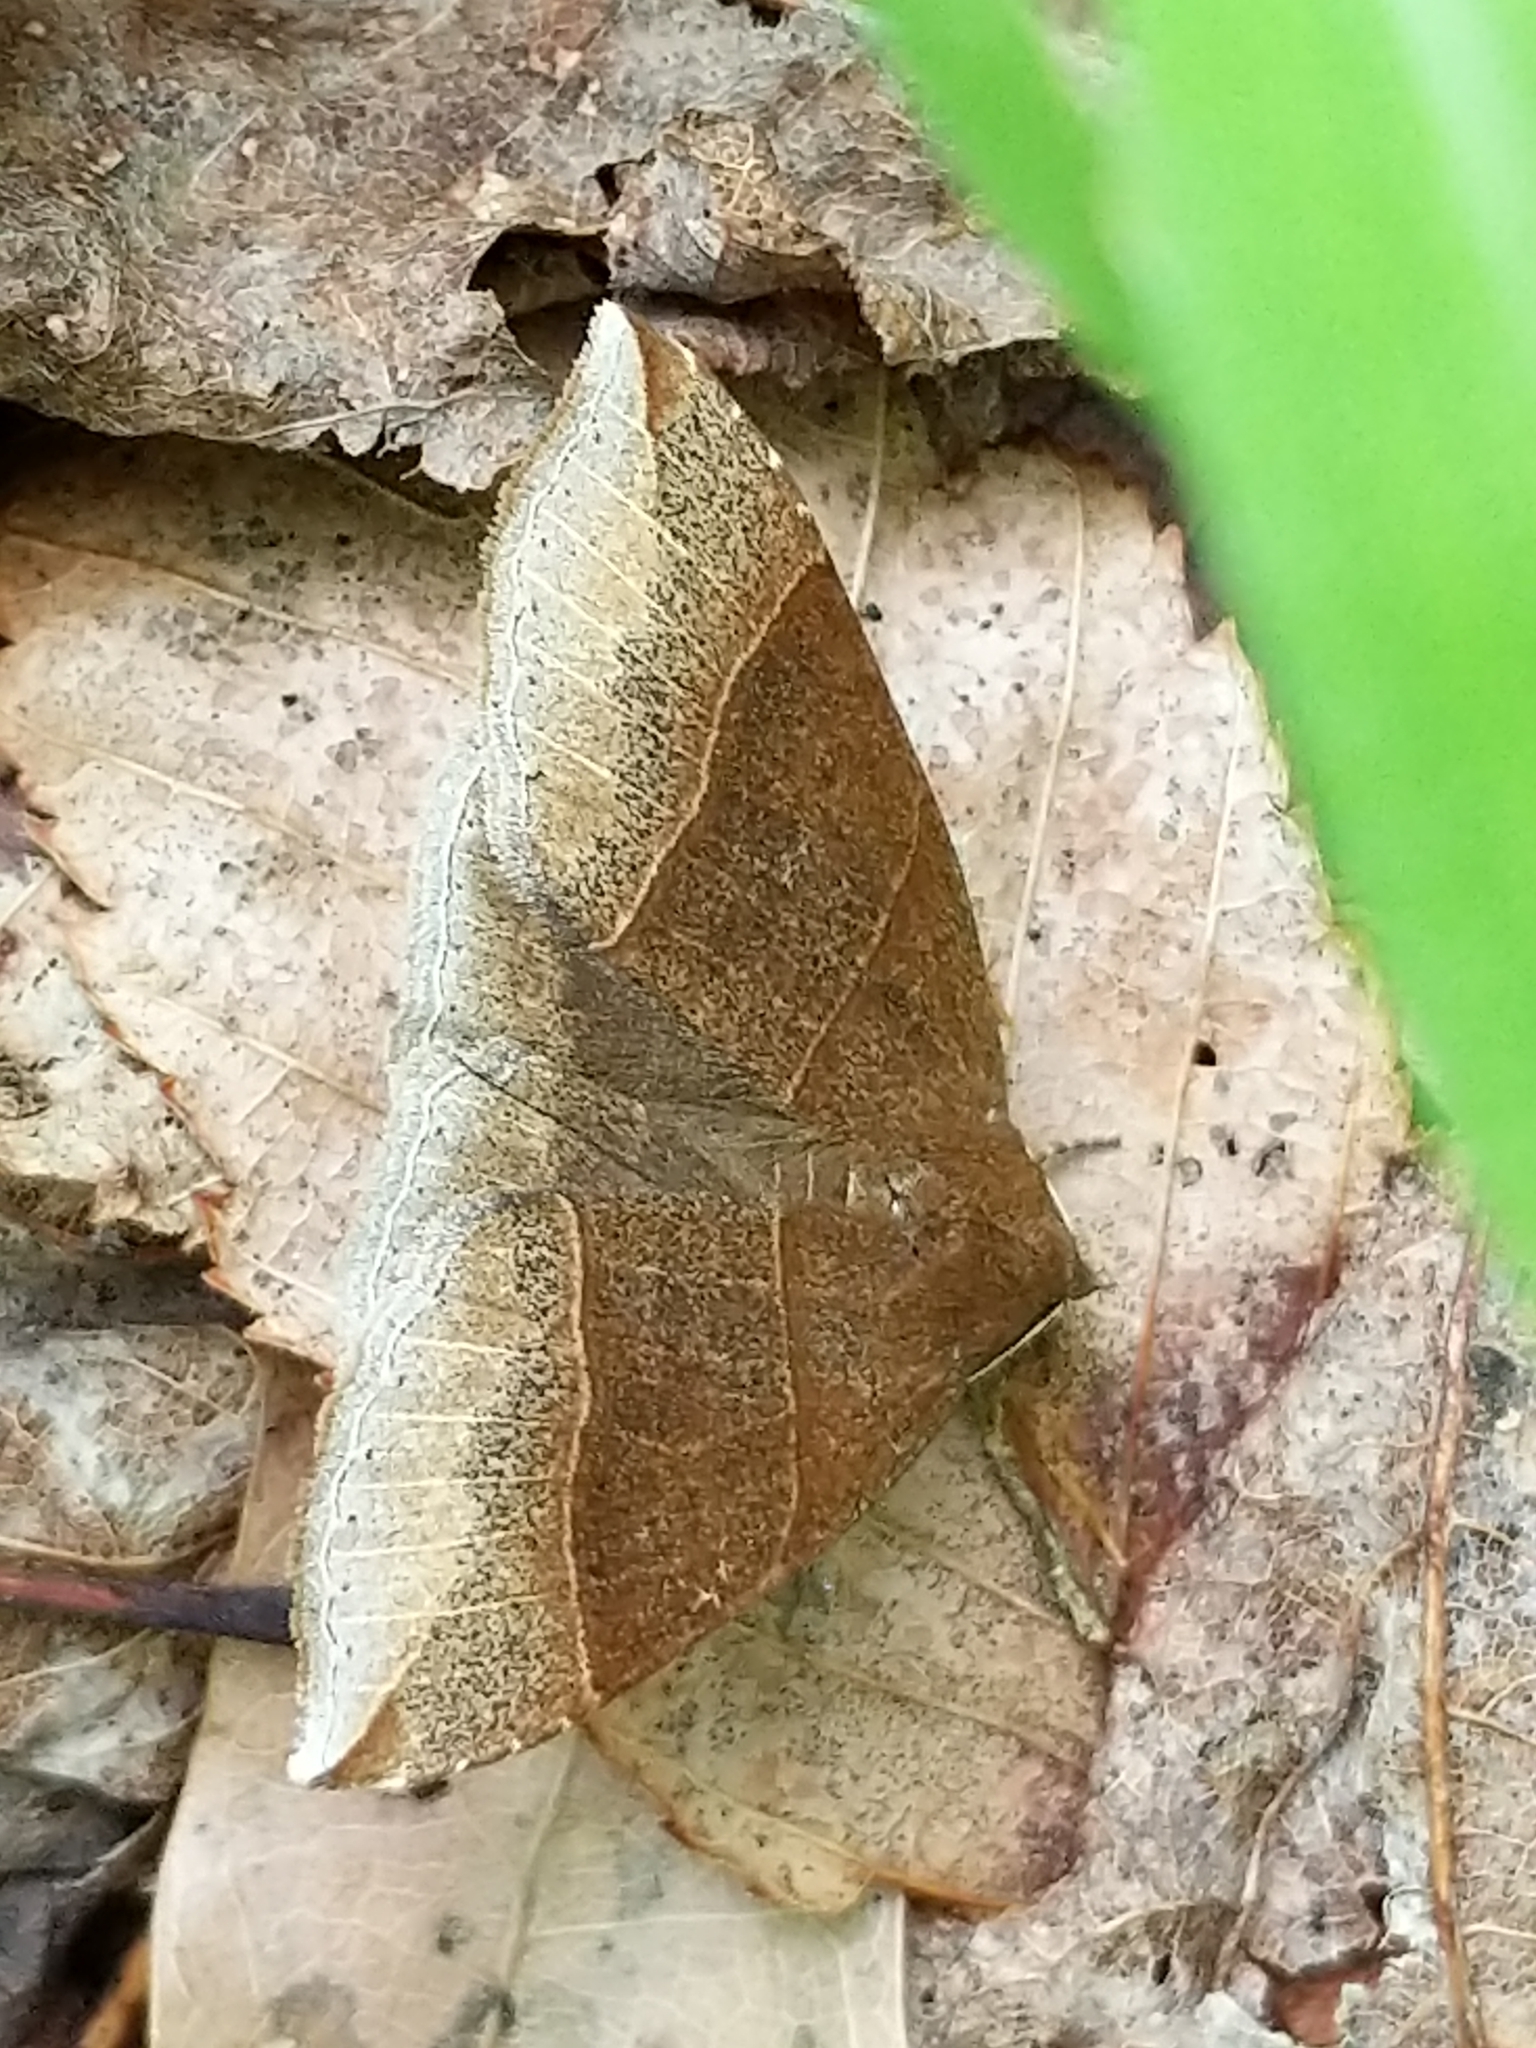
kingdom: Animalia
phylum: Arthropoda
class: Insecta
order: Lepidoptera
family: Erebidae
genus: Parallelia
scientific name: Parallelia bistriaris
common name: Maple looper moth
